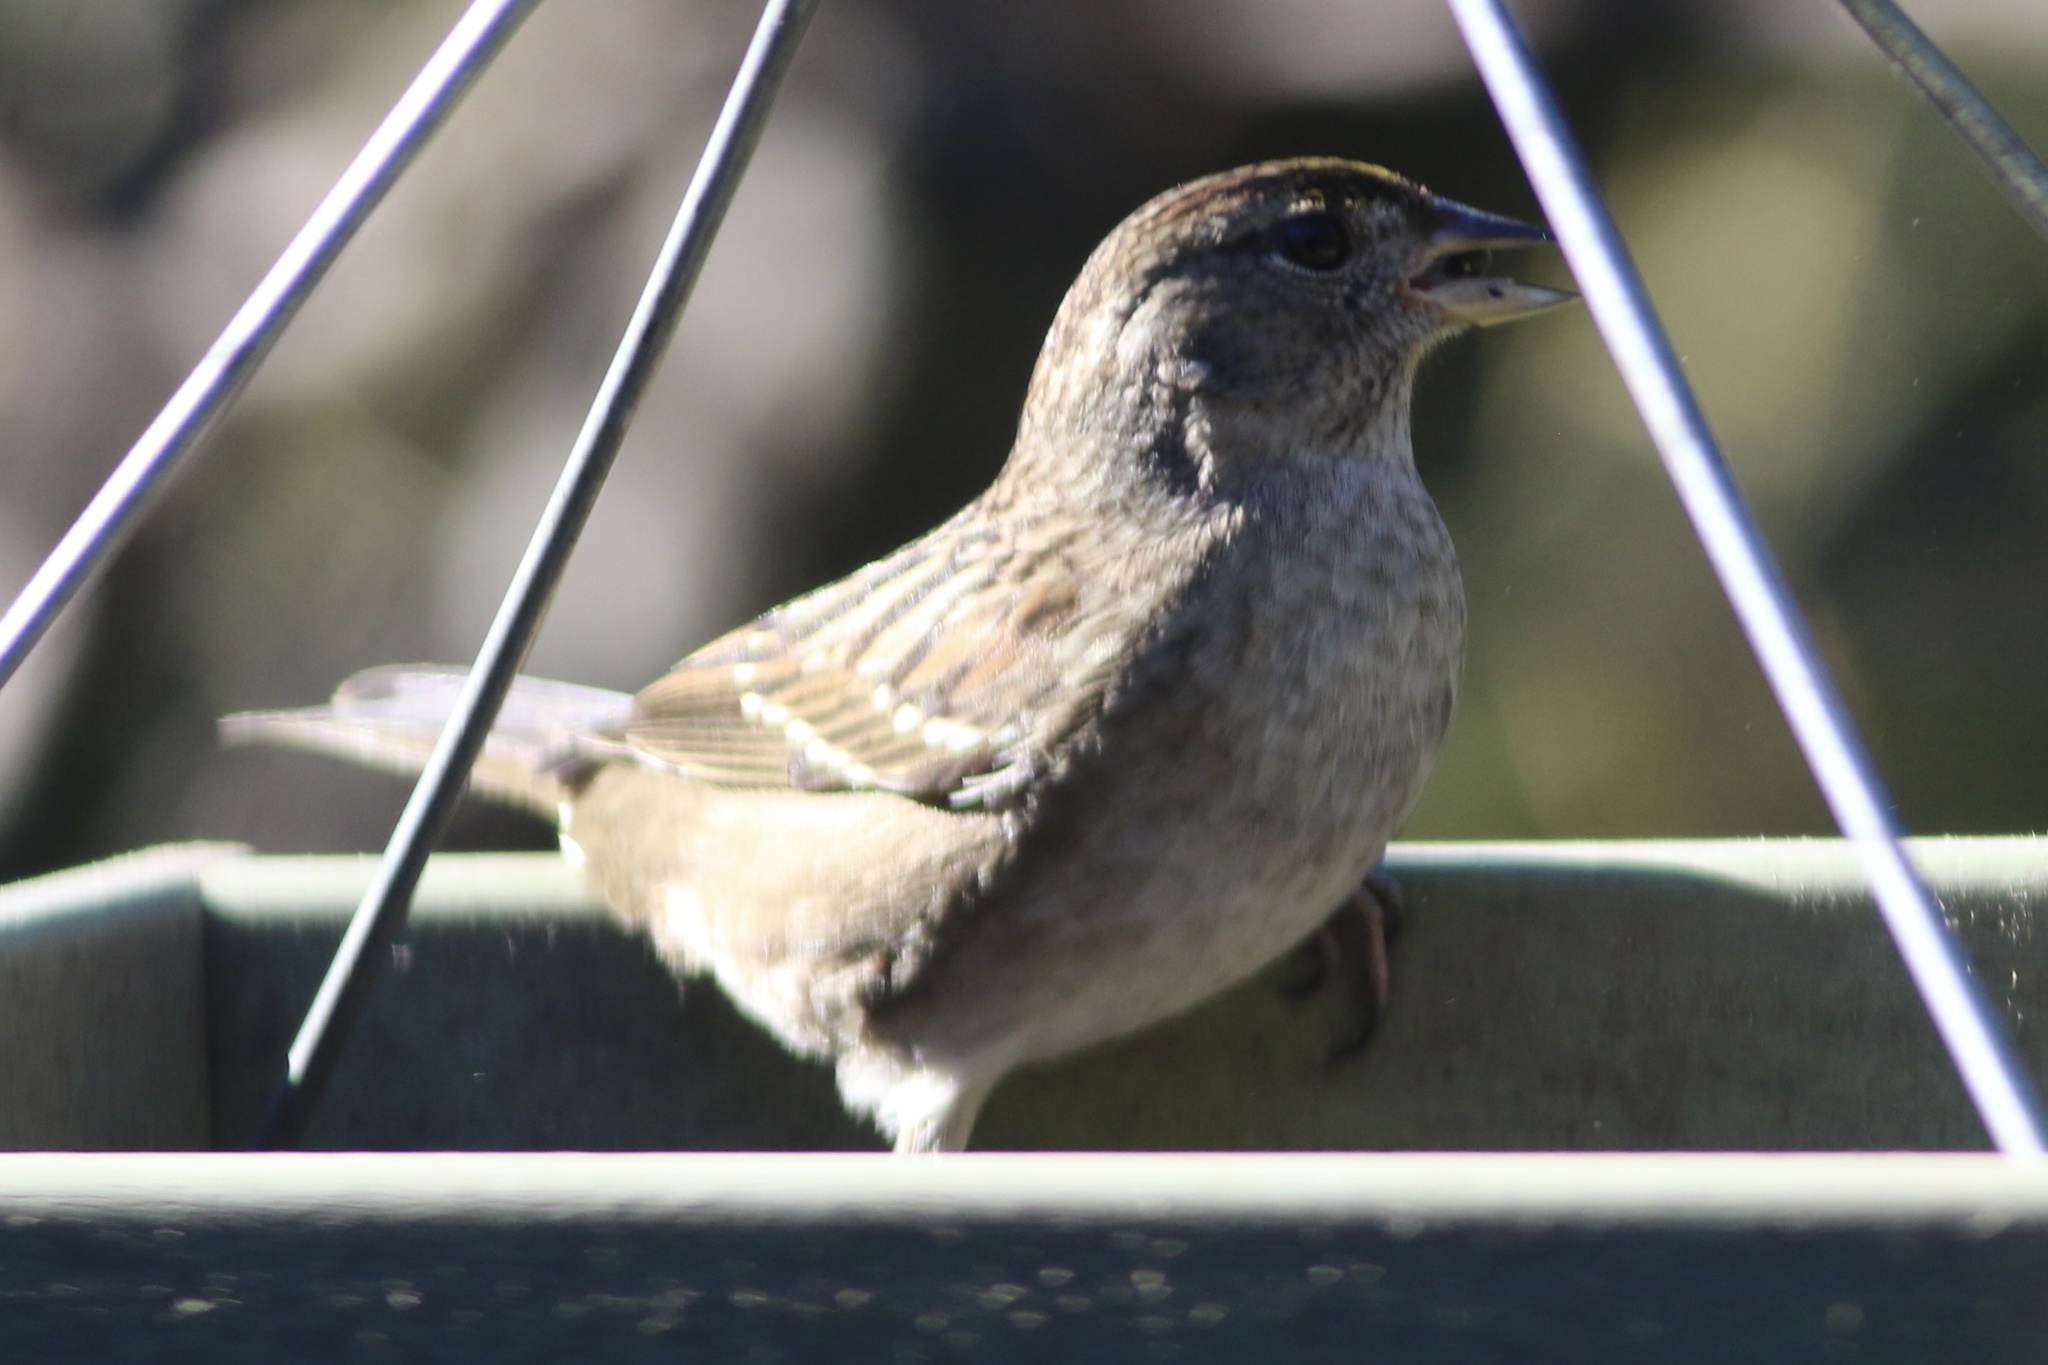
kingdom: Animalia
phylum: Chordata
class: Aves
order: Passeriformes
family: Passerellidae
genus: Zonotrichia
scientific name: Zonotrichia atricapilla
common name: Golden-crowned sparrow
